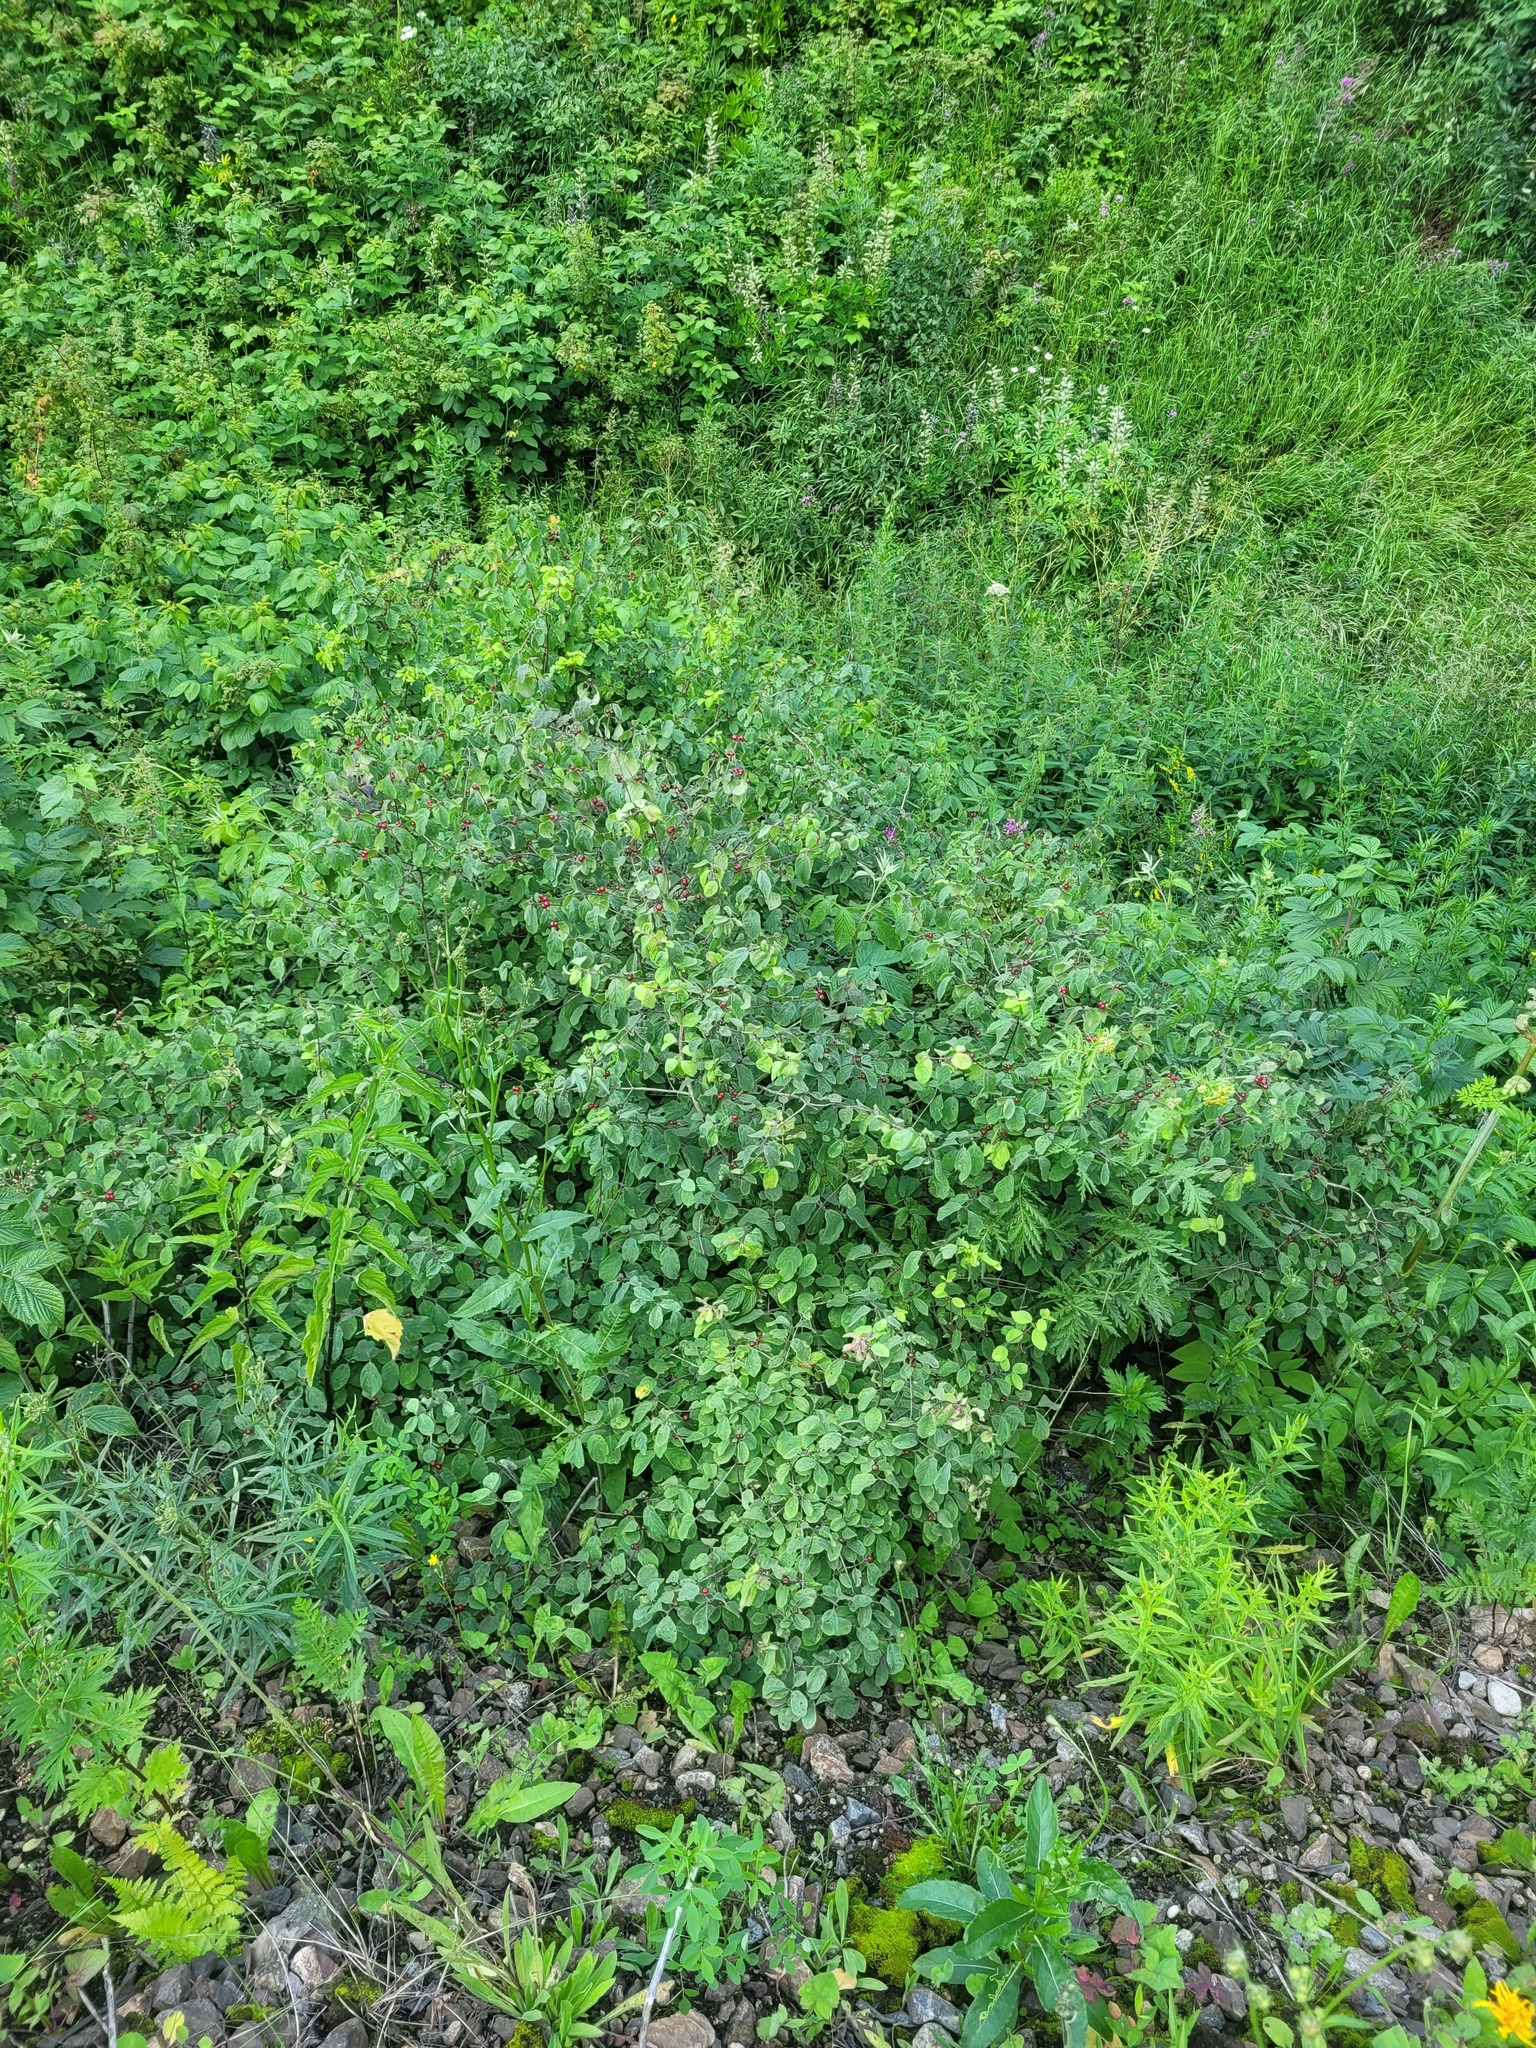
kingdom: Plantae
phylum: Tracheophyta
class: Magnoliopsida
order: Dipsacales
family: Caprifoliaceae
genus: Lonicera
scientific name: Lonicera xylosteum
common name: Fly honeysuckle
